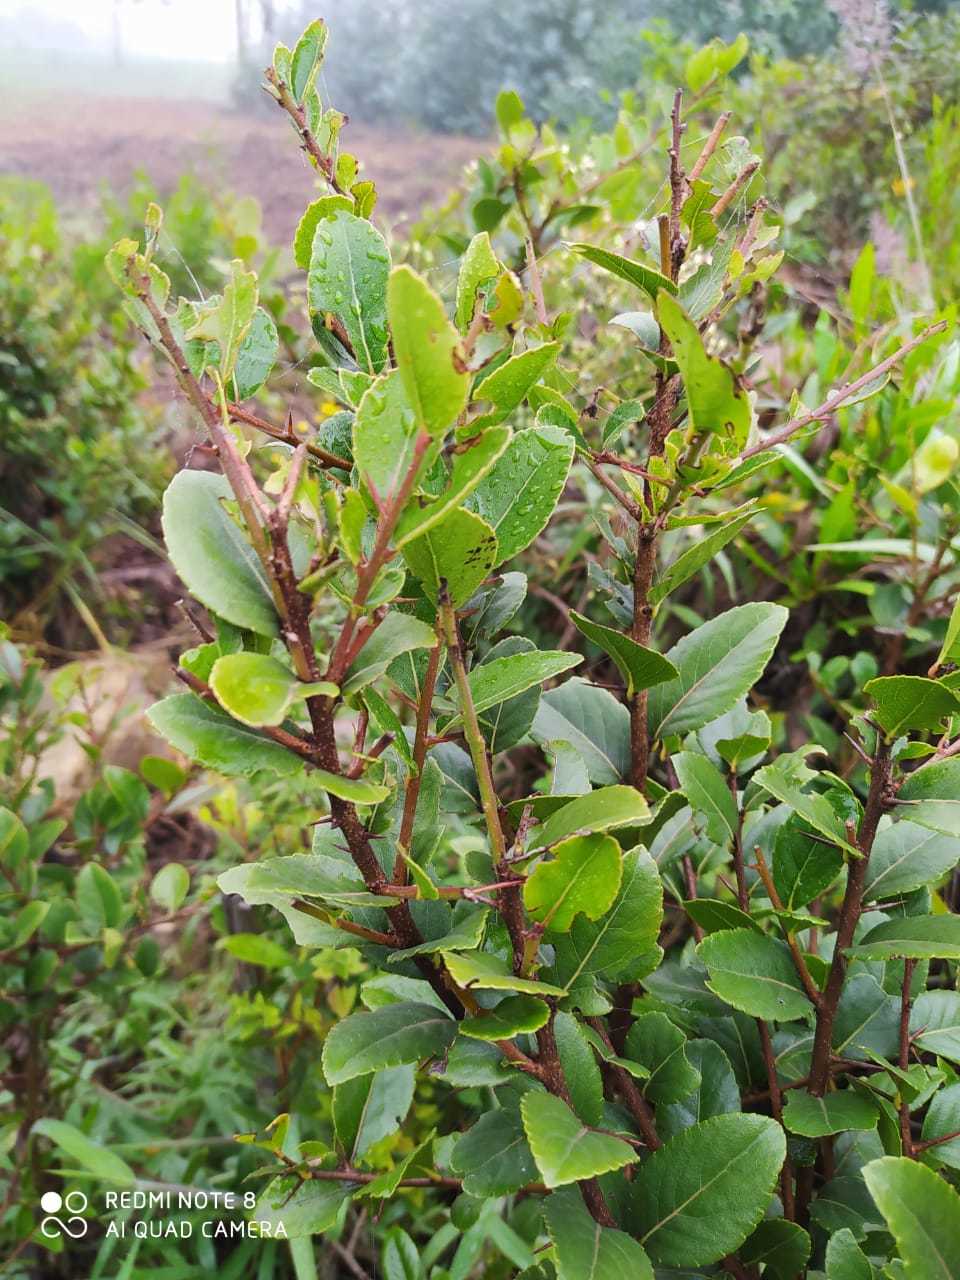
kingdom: Plantae
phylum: Tracheophyta
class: Magnoliopsida
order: Malpighiales
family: Salicaceae
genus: Xylosma
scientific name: Xylosma spiculifera
